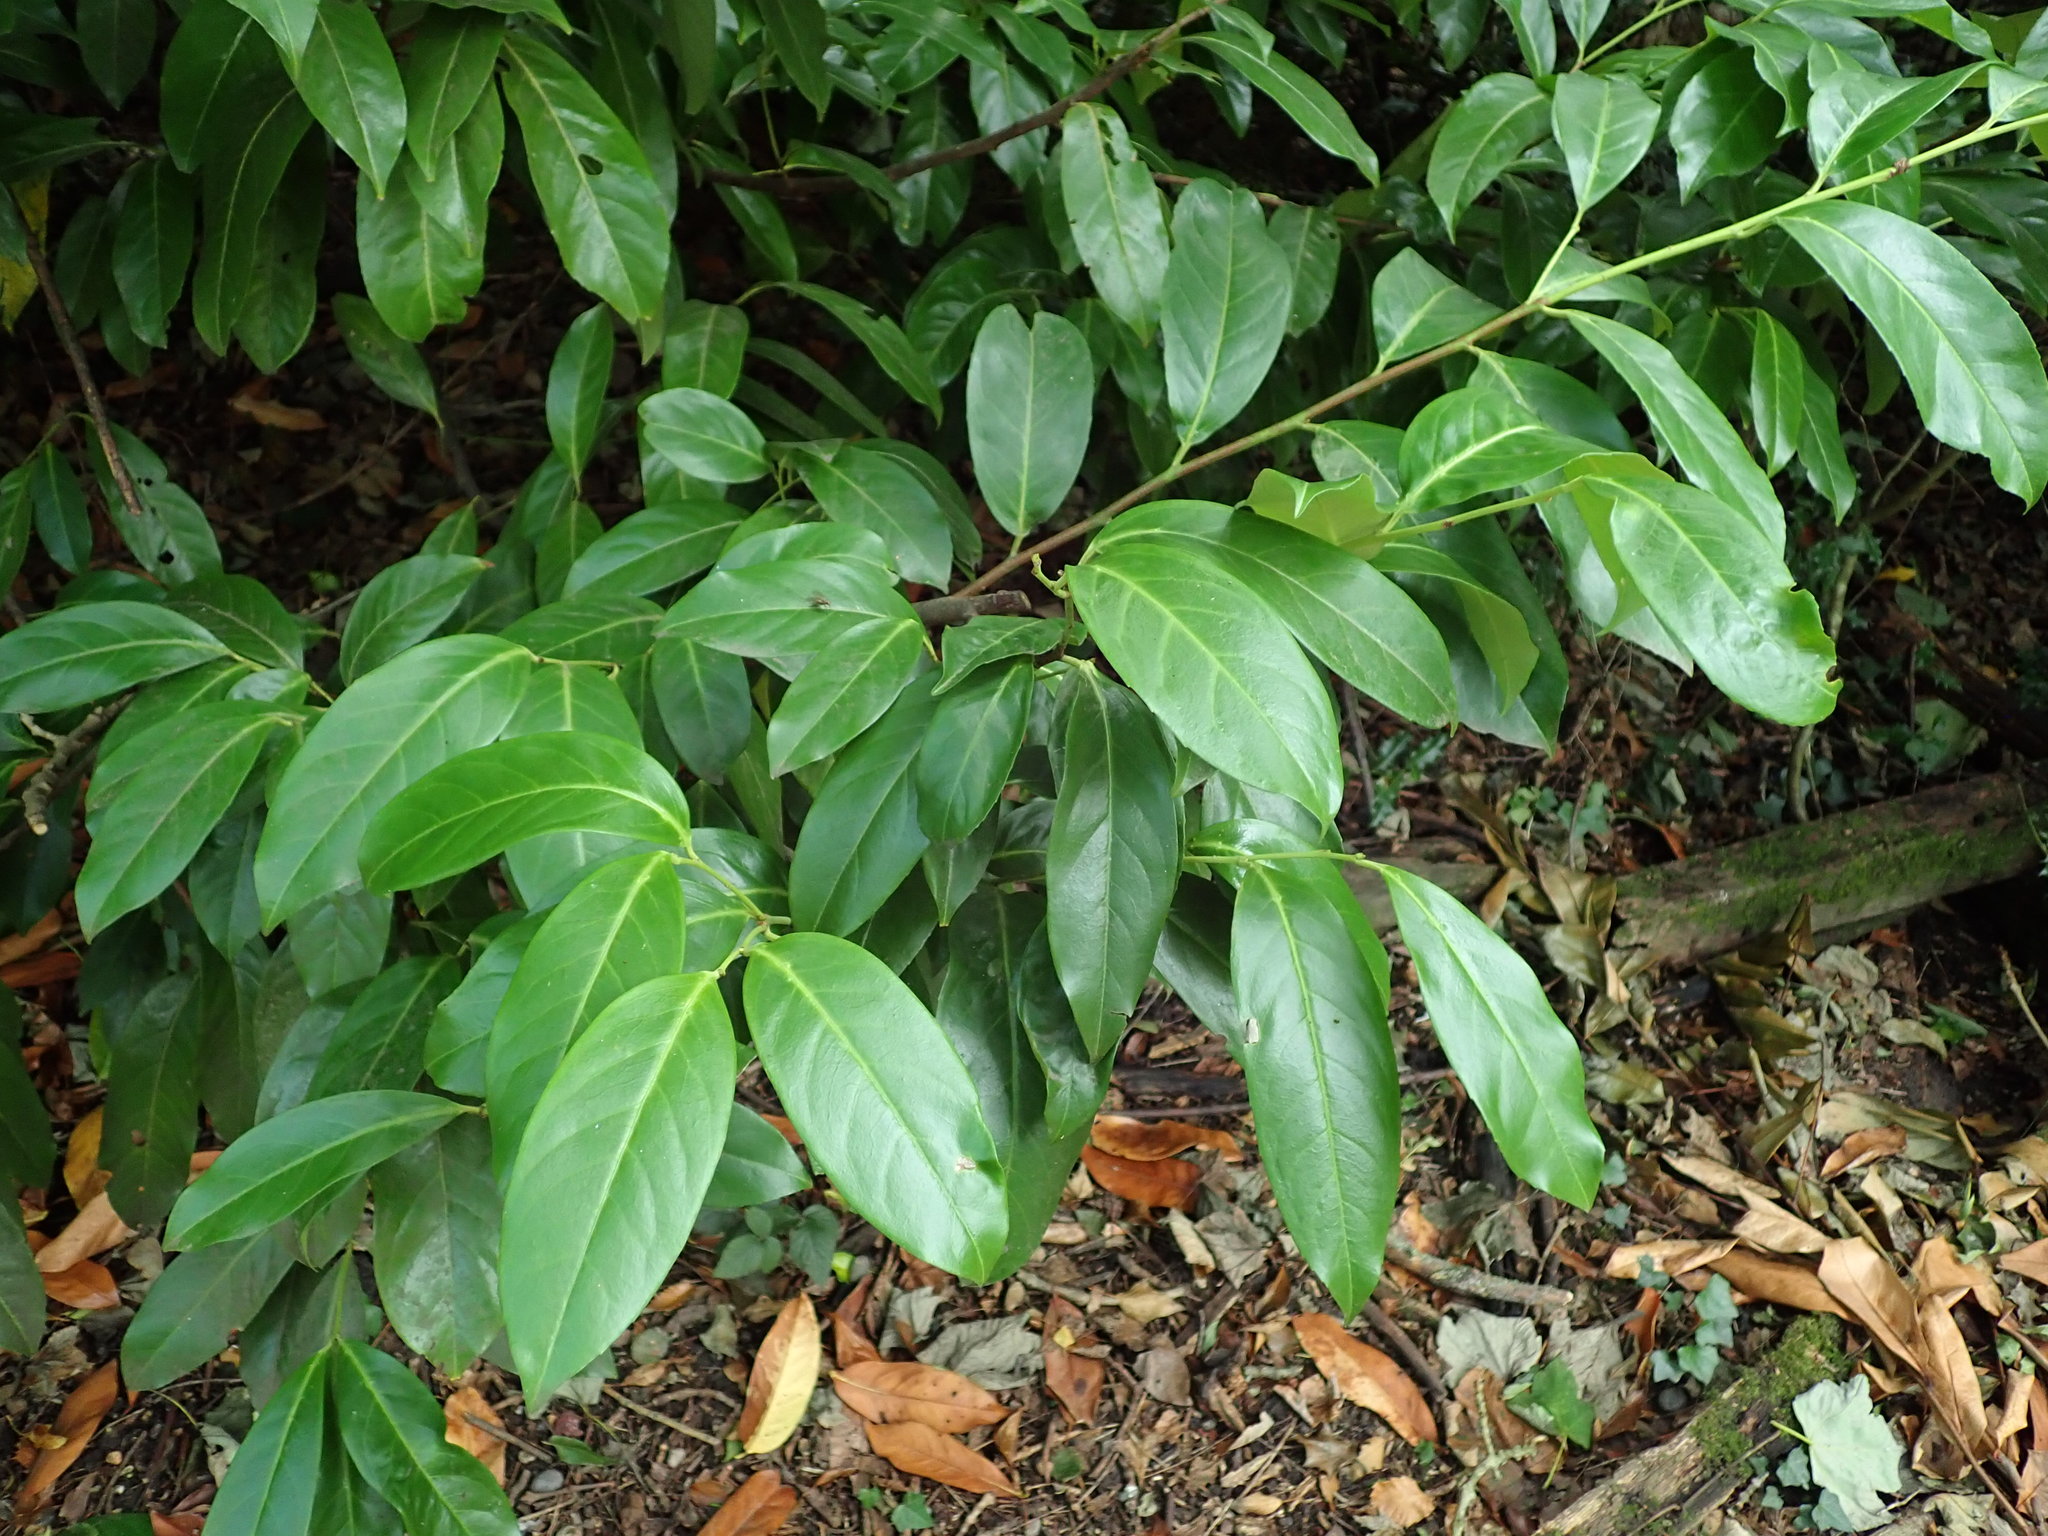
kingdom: Plantae
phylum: Tracheophyta
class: Magnoliopsida
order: Rosales
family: Rosaceae
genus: Prunus
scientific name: Prunus laurocerasus
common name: Cherry laurel
